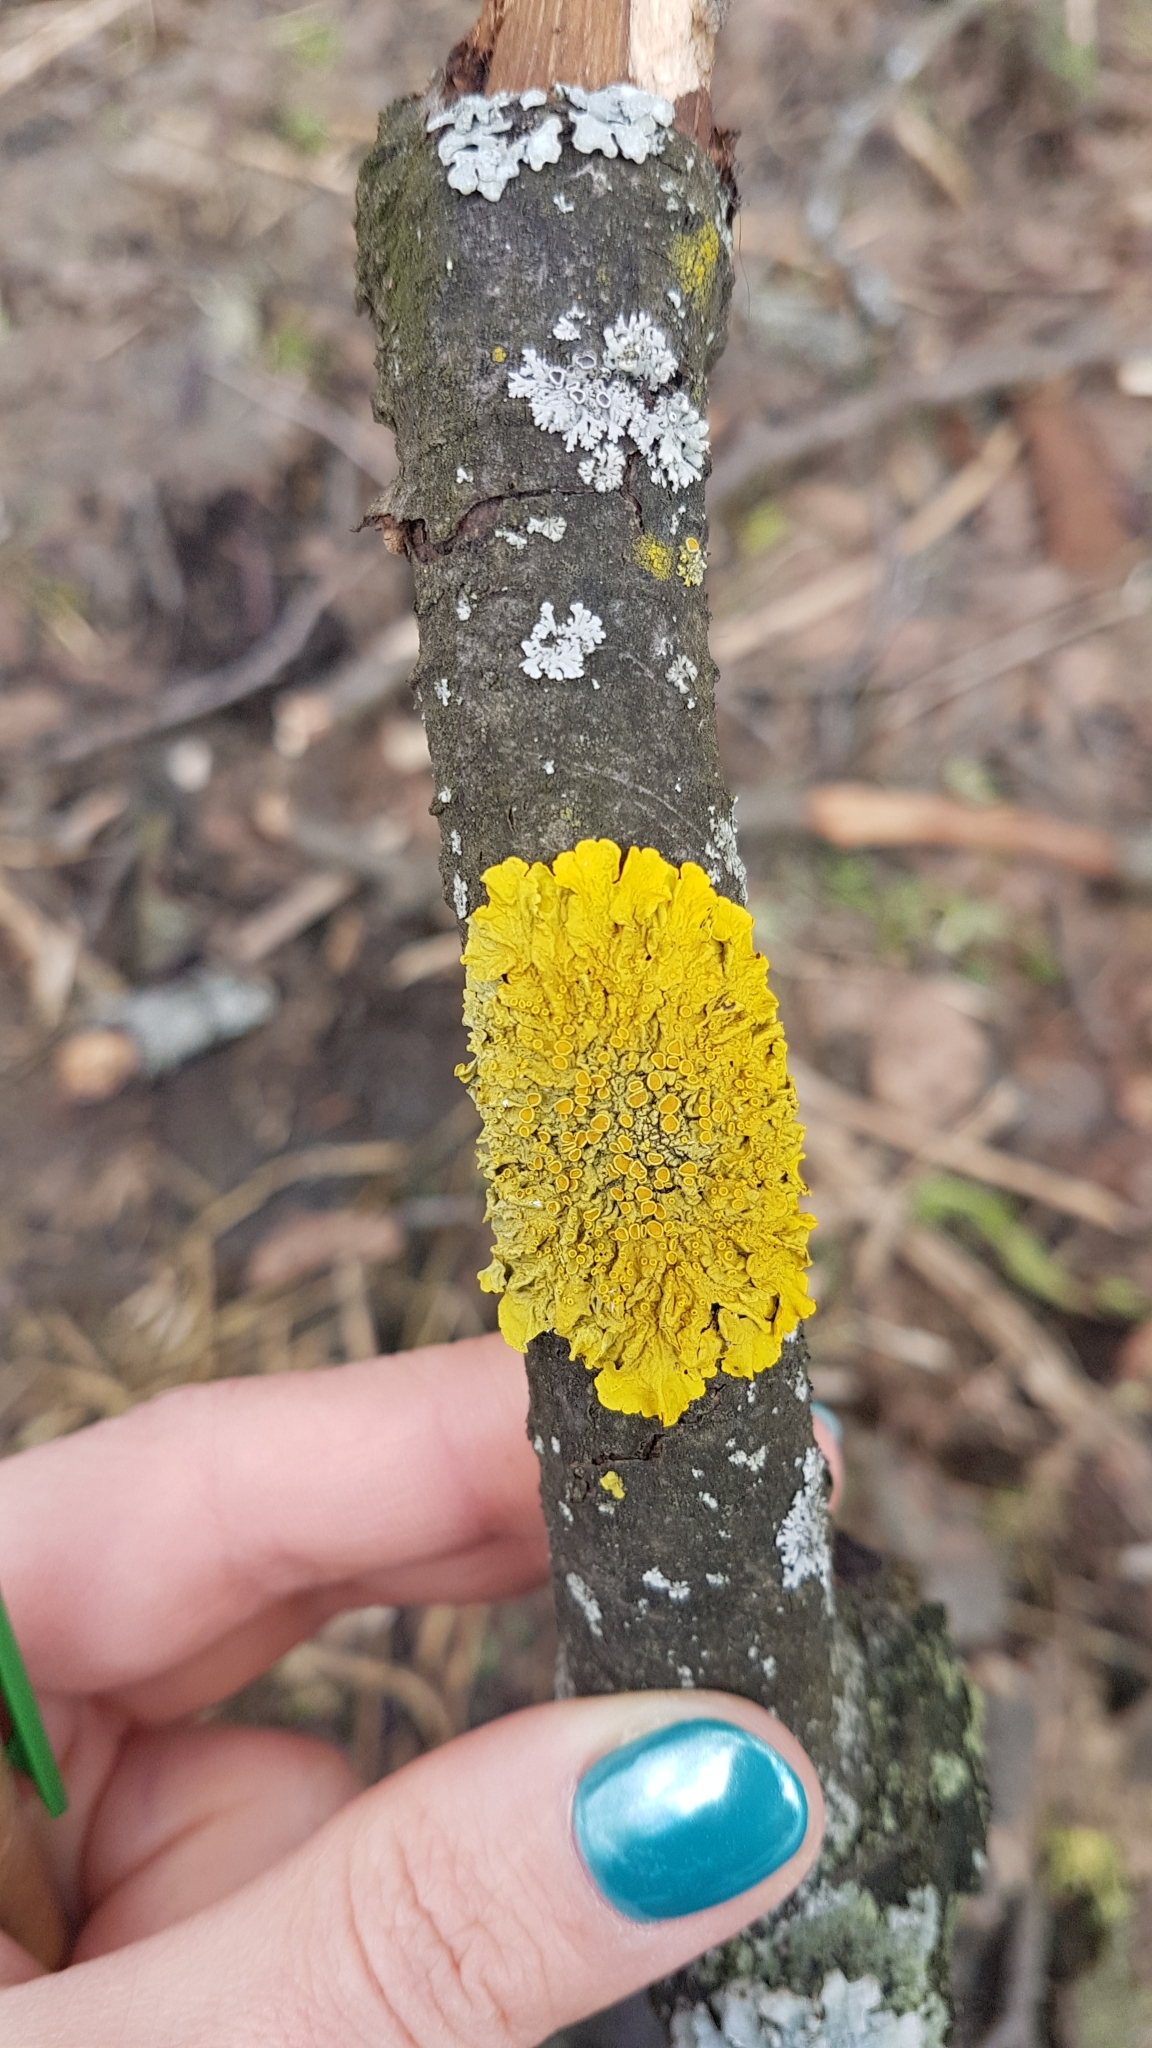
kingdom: Fungi
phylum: Ascomycota
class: Lecanoromycetes
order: Teloschistales
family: Teloschistaceae
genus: Xanthoria
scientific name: Xanthoria parietina
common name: Common orange lichen
